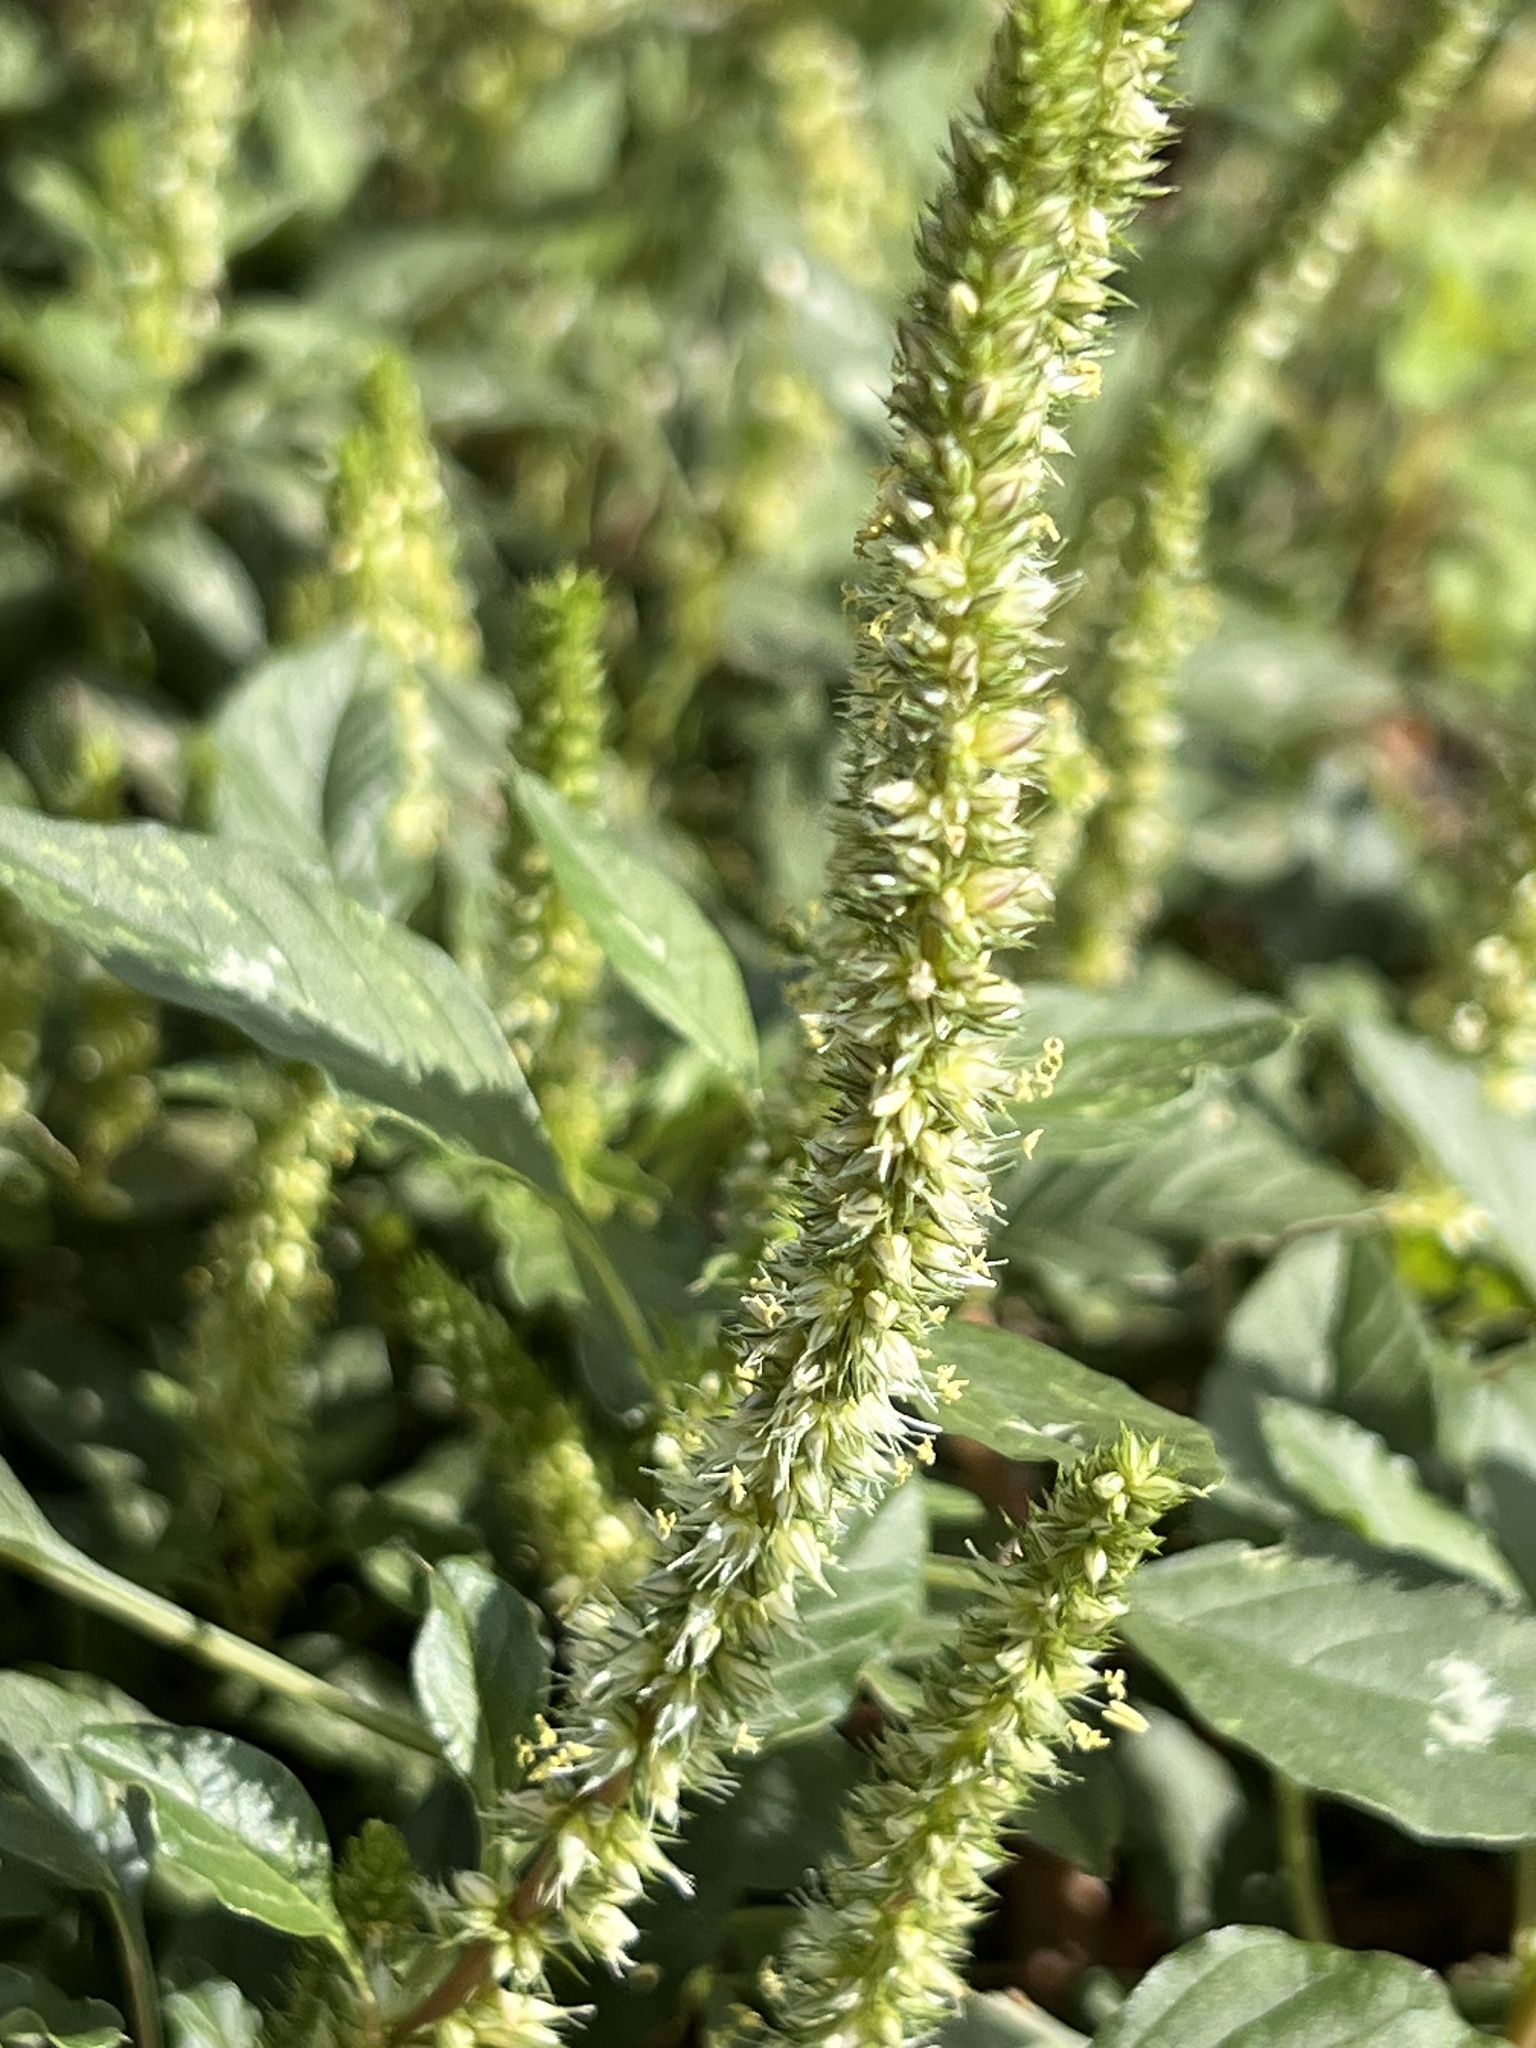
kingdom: Plantae
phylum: Tracheophyta
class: Magnoliopsida
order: Caryophyllales
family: Amaranthaceae
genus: Amaranthus
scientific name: Amaranthus palmeri
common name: Dioecious amaranth
